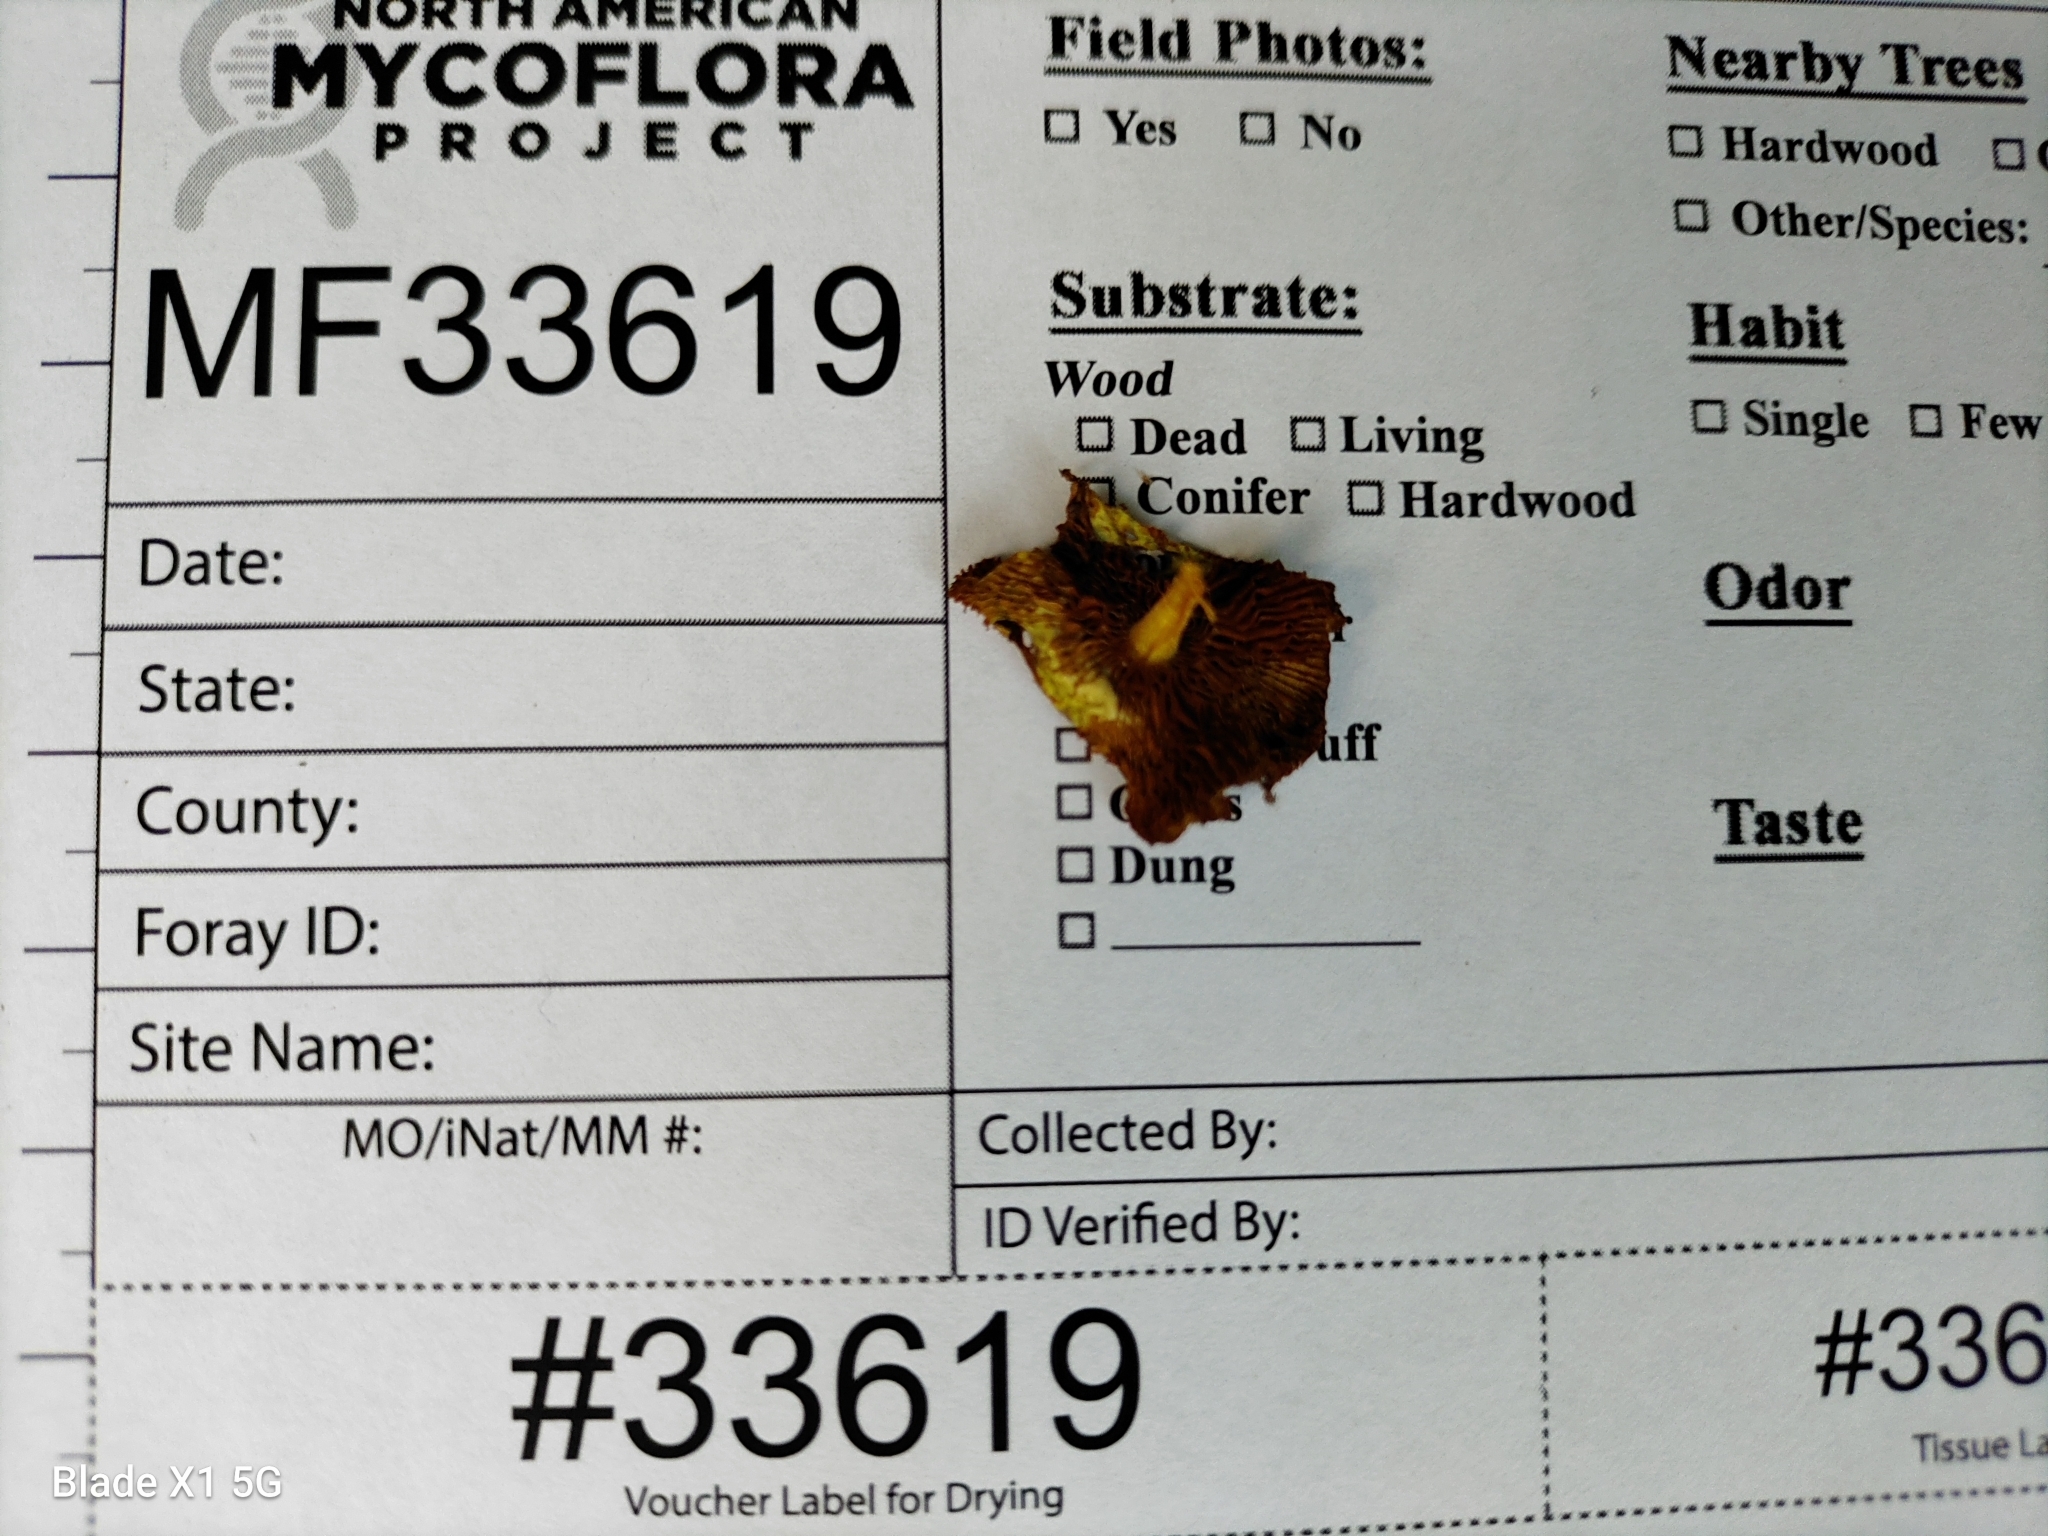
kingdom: Fungi
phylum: Basidiomycota
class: Agaricomycetes
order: Agaricales
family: Bolbitiaceae
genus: Bolbitius
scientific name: Bolbitius callistus
